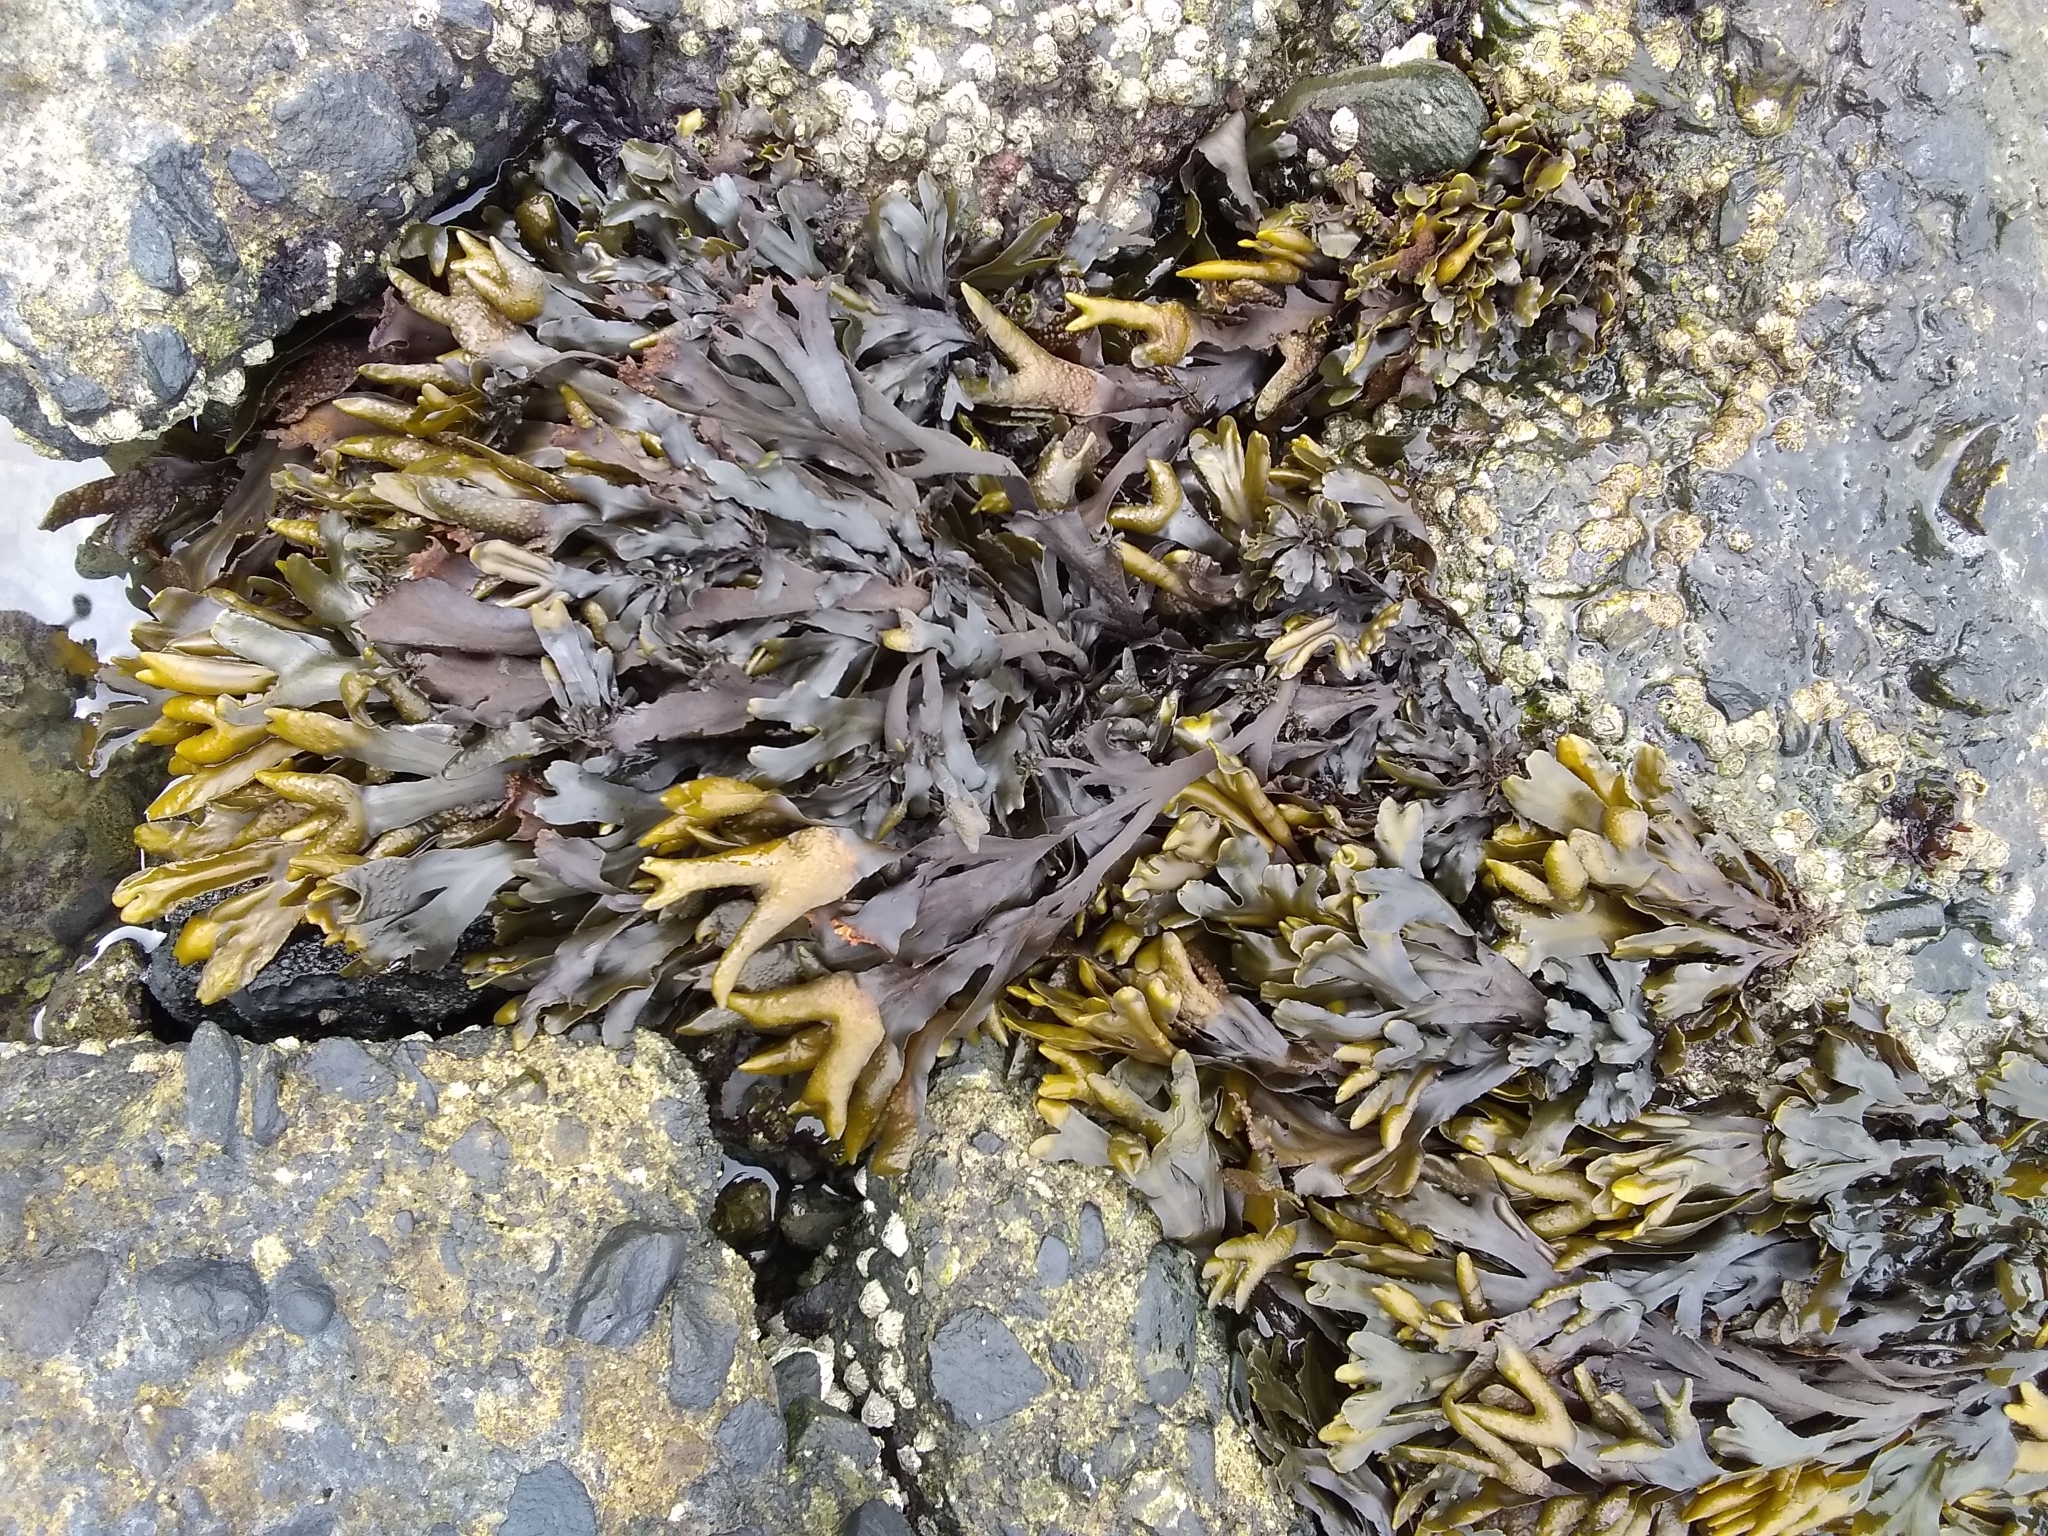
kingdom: Chromista
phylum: Ochrophyta
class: Phaeophyceae
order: Fucales
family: Fucaceae
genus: Fucus
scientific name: Fucus distichus
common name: Rockweed
